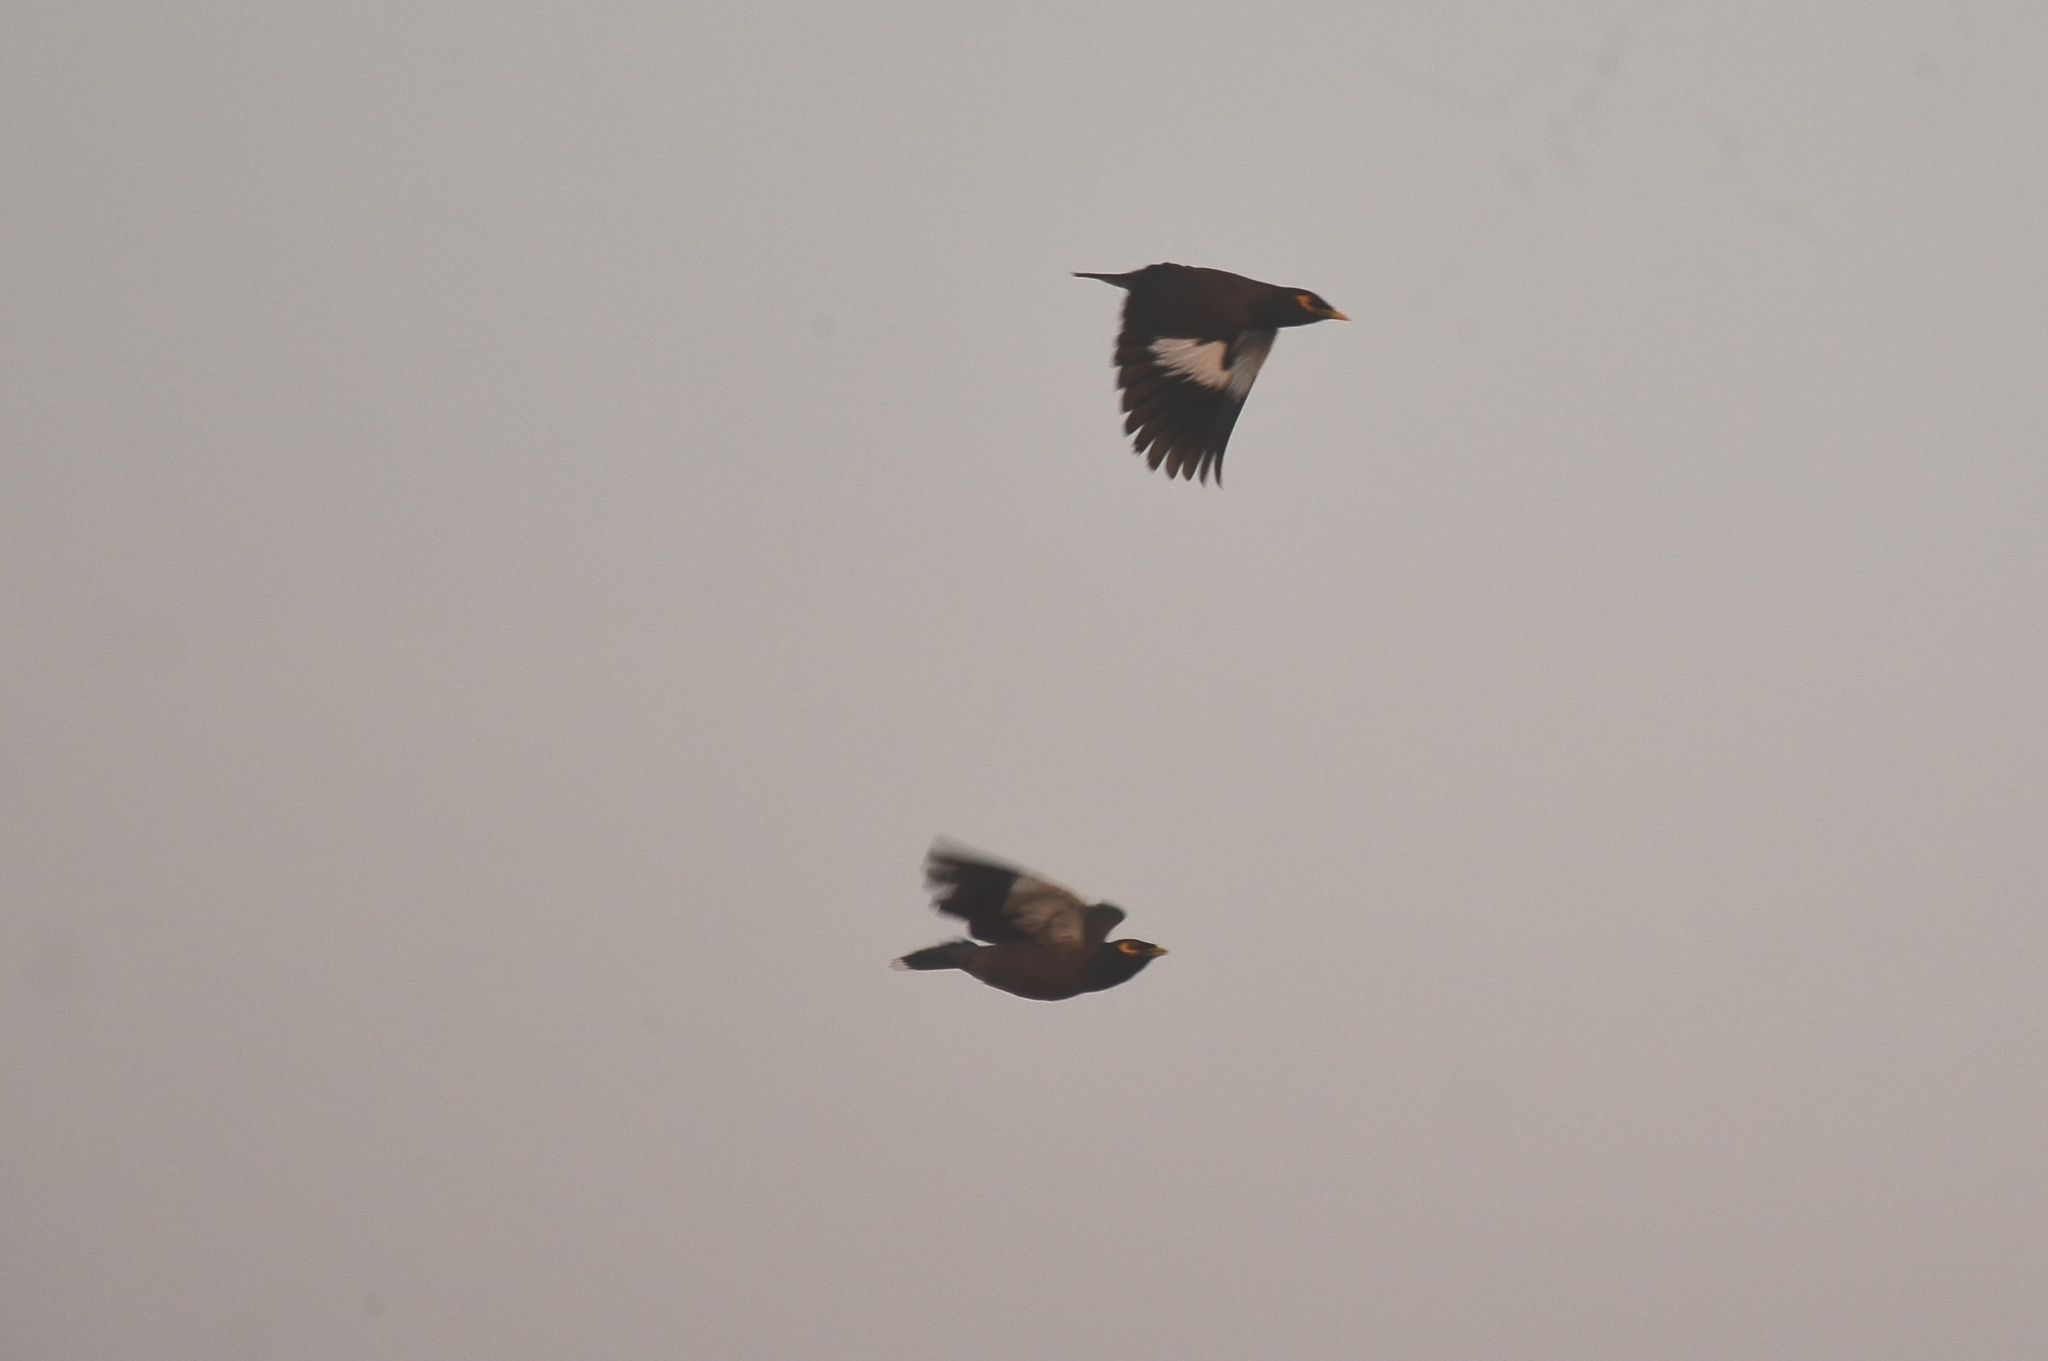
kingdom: Animalia
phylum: Chordata
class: Aves
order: Passeriformes
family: Sturnidae
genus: Acridotheres
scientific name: Acridotheres tristis
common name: Common myna
